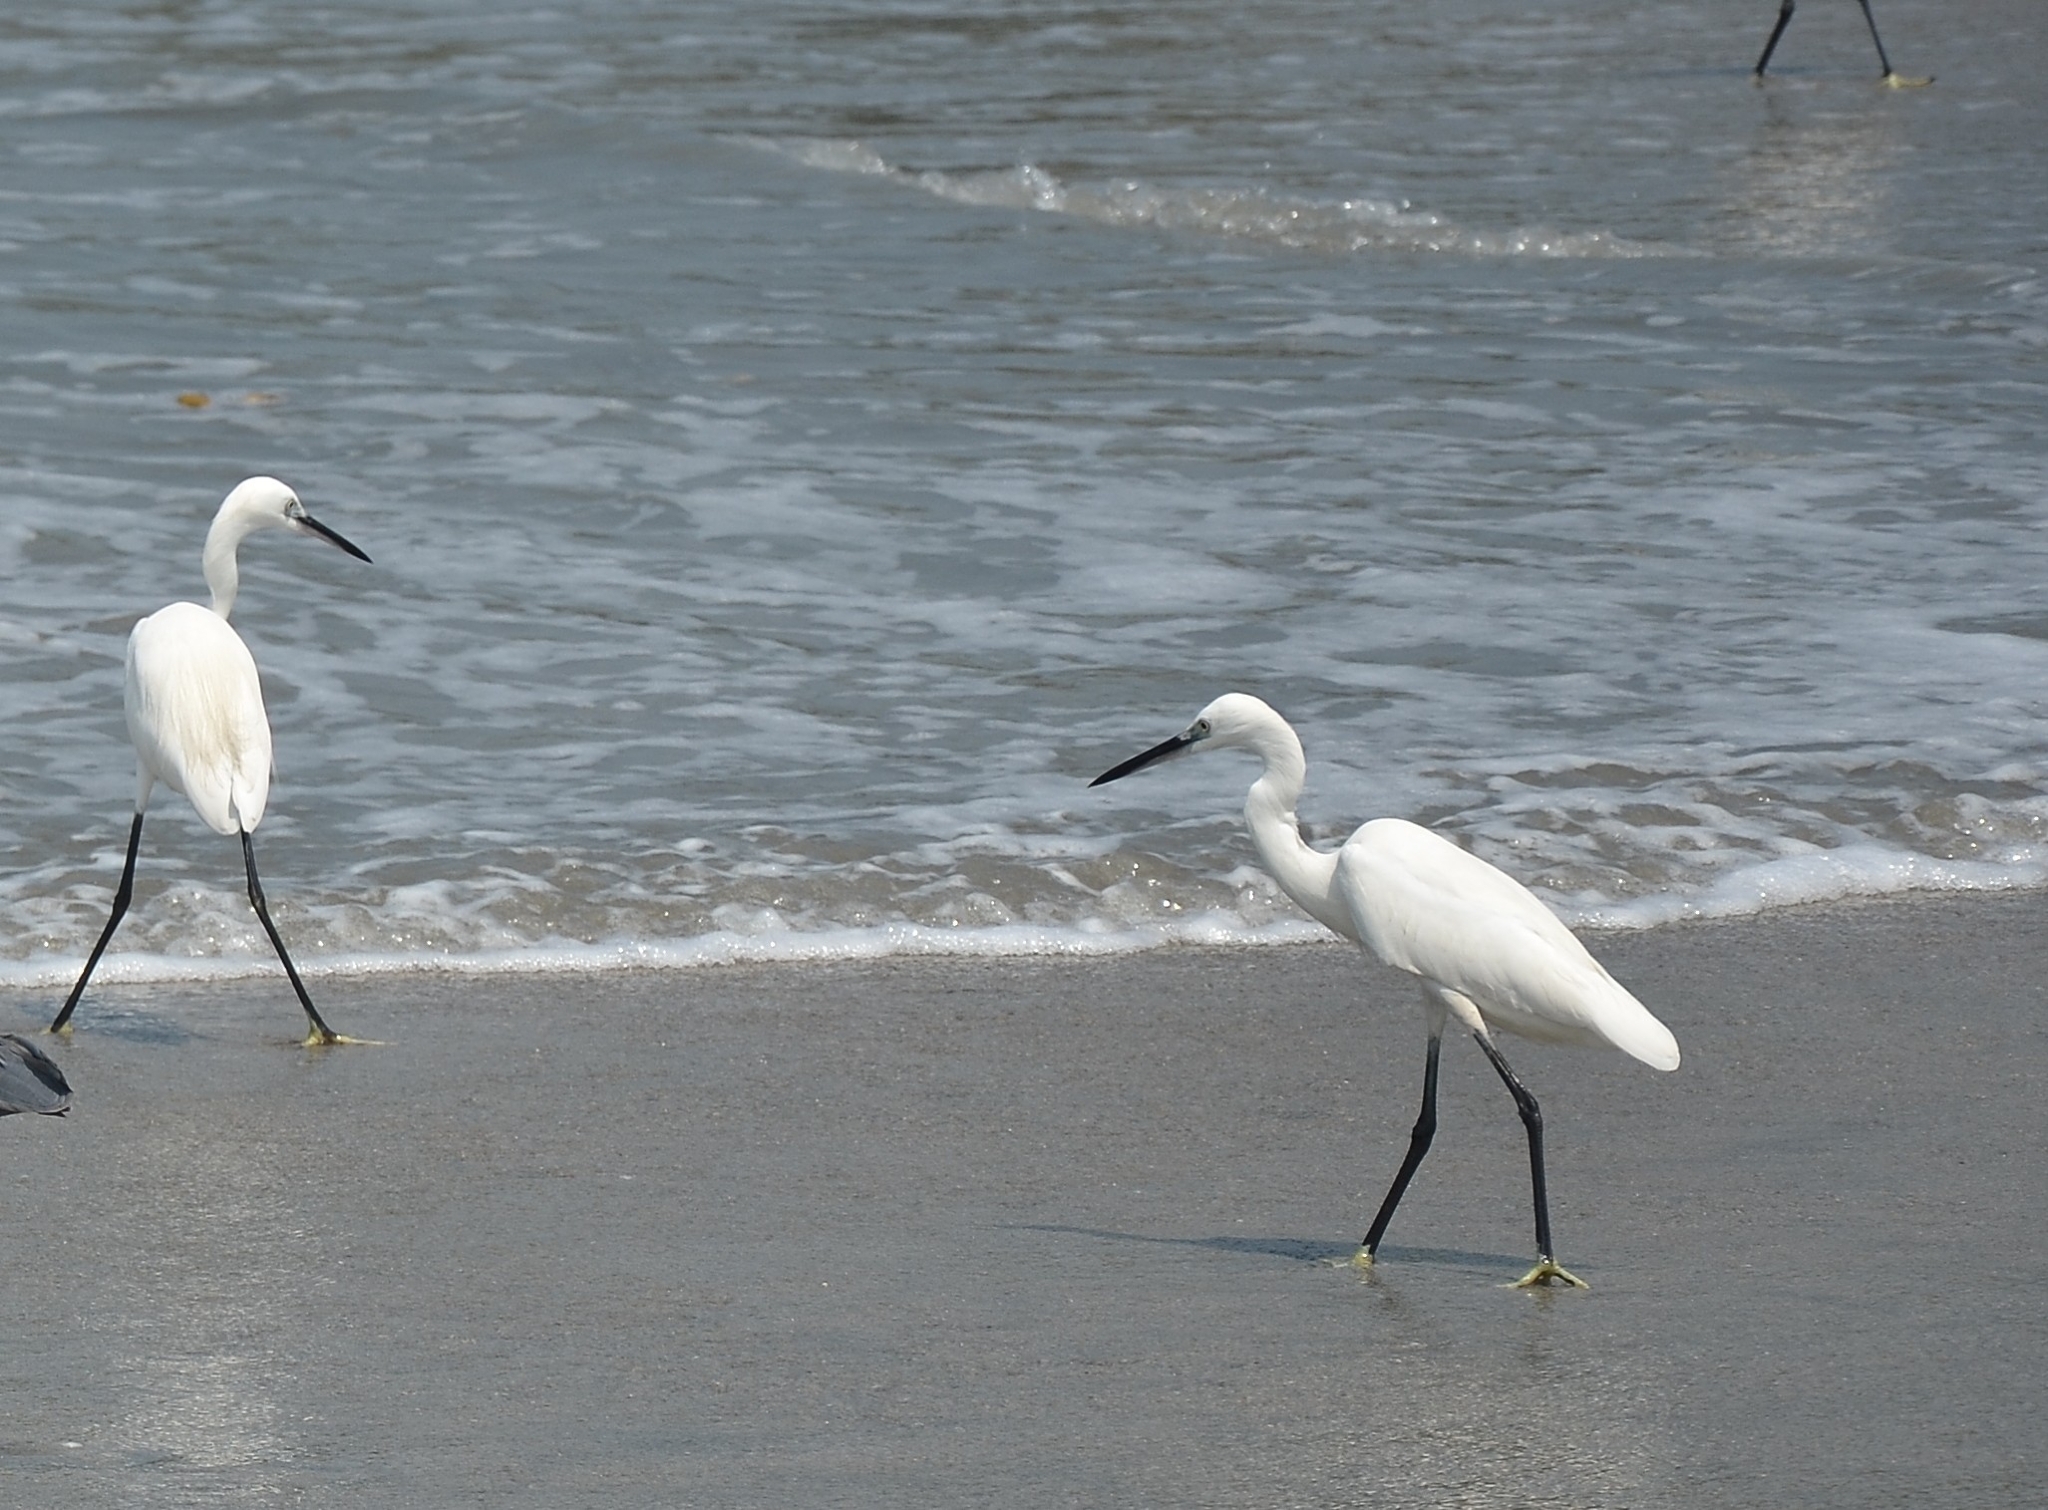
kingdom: Animalia
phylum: Chordata
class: Aves
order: Pelecaniformes
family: Ardeidae
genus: Egretta
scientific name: Egretta garzetta
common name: Little egret
